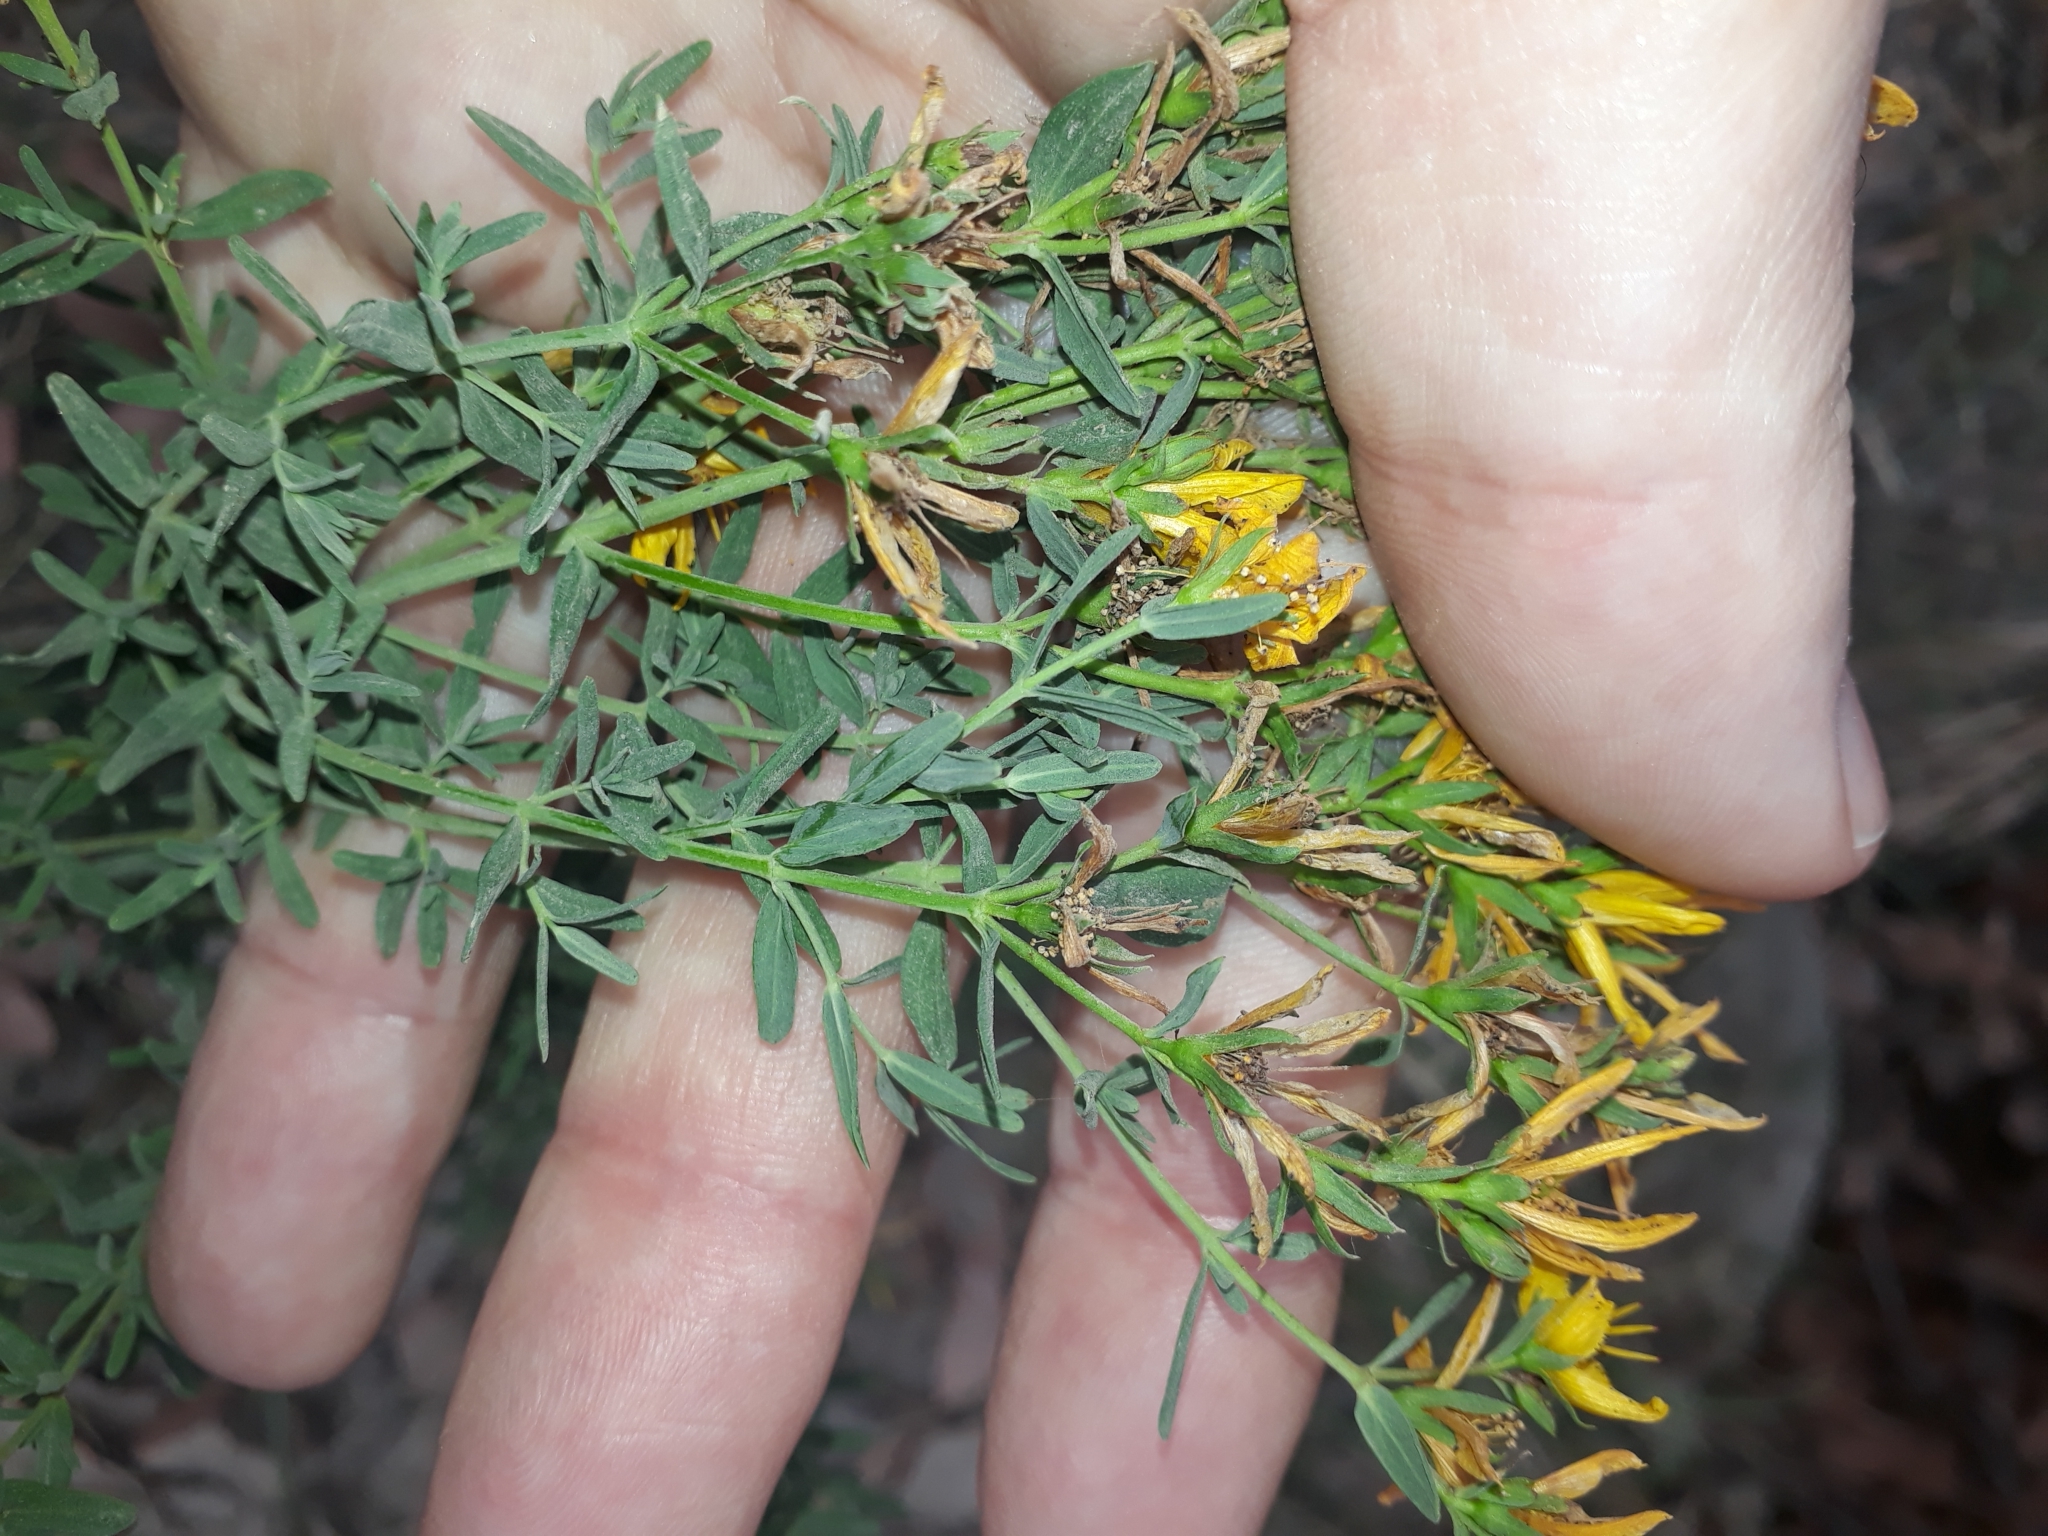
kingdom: Plantae
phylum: Tracheophyta
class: Magnoliopsida
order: Malpighiales
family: Hypericaceae
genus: Hypericum
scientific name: Hypericum perforatum
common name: Common st. johnswort
